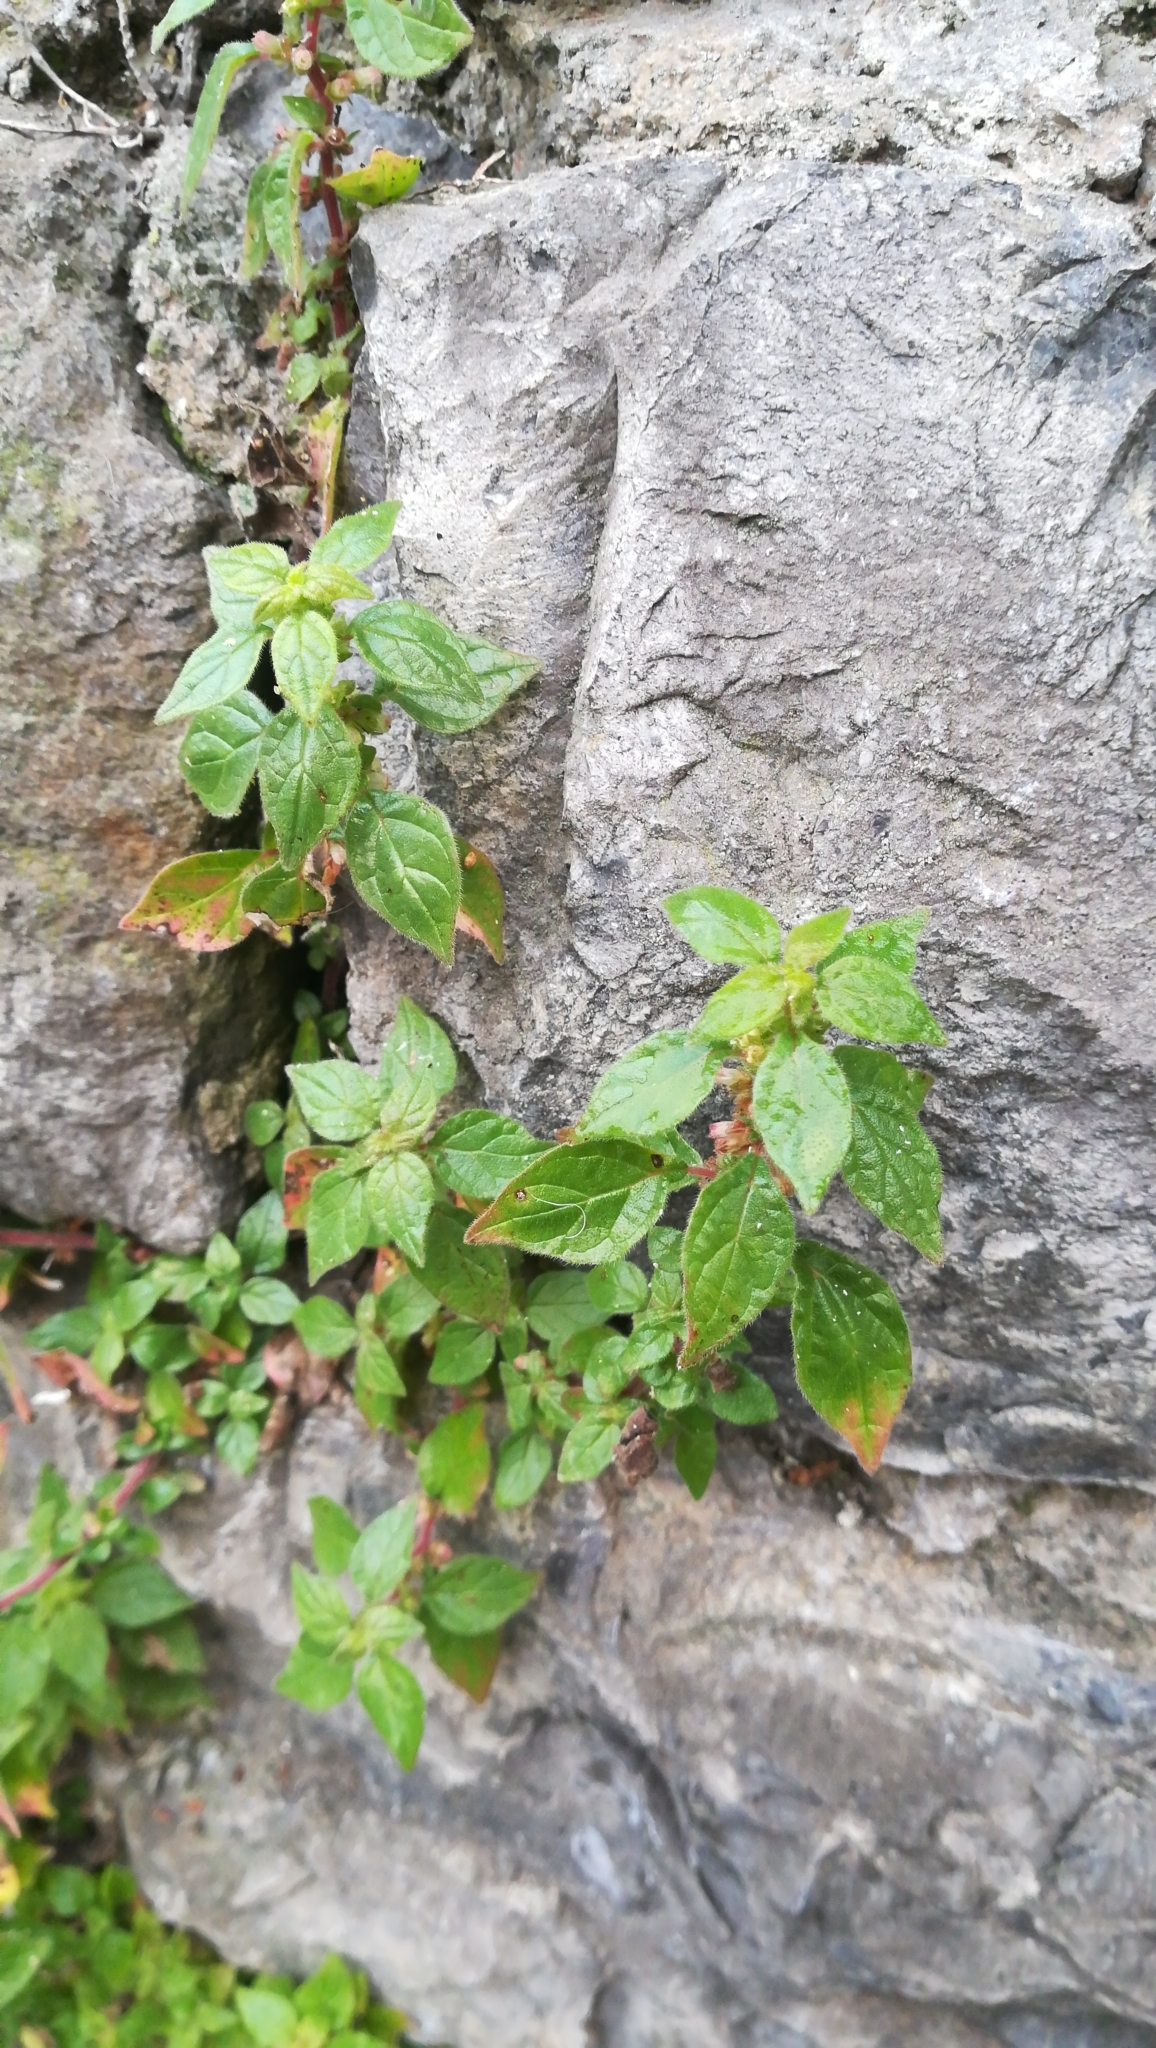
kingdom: Plantae
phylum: Tracheophyta
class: Magnoliopsida
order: Rosales
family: Urticaceae
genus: Parietaria
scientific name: Parietaria judaica
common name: Pellitory-of-the-wall
